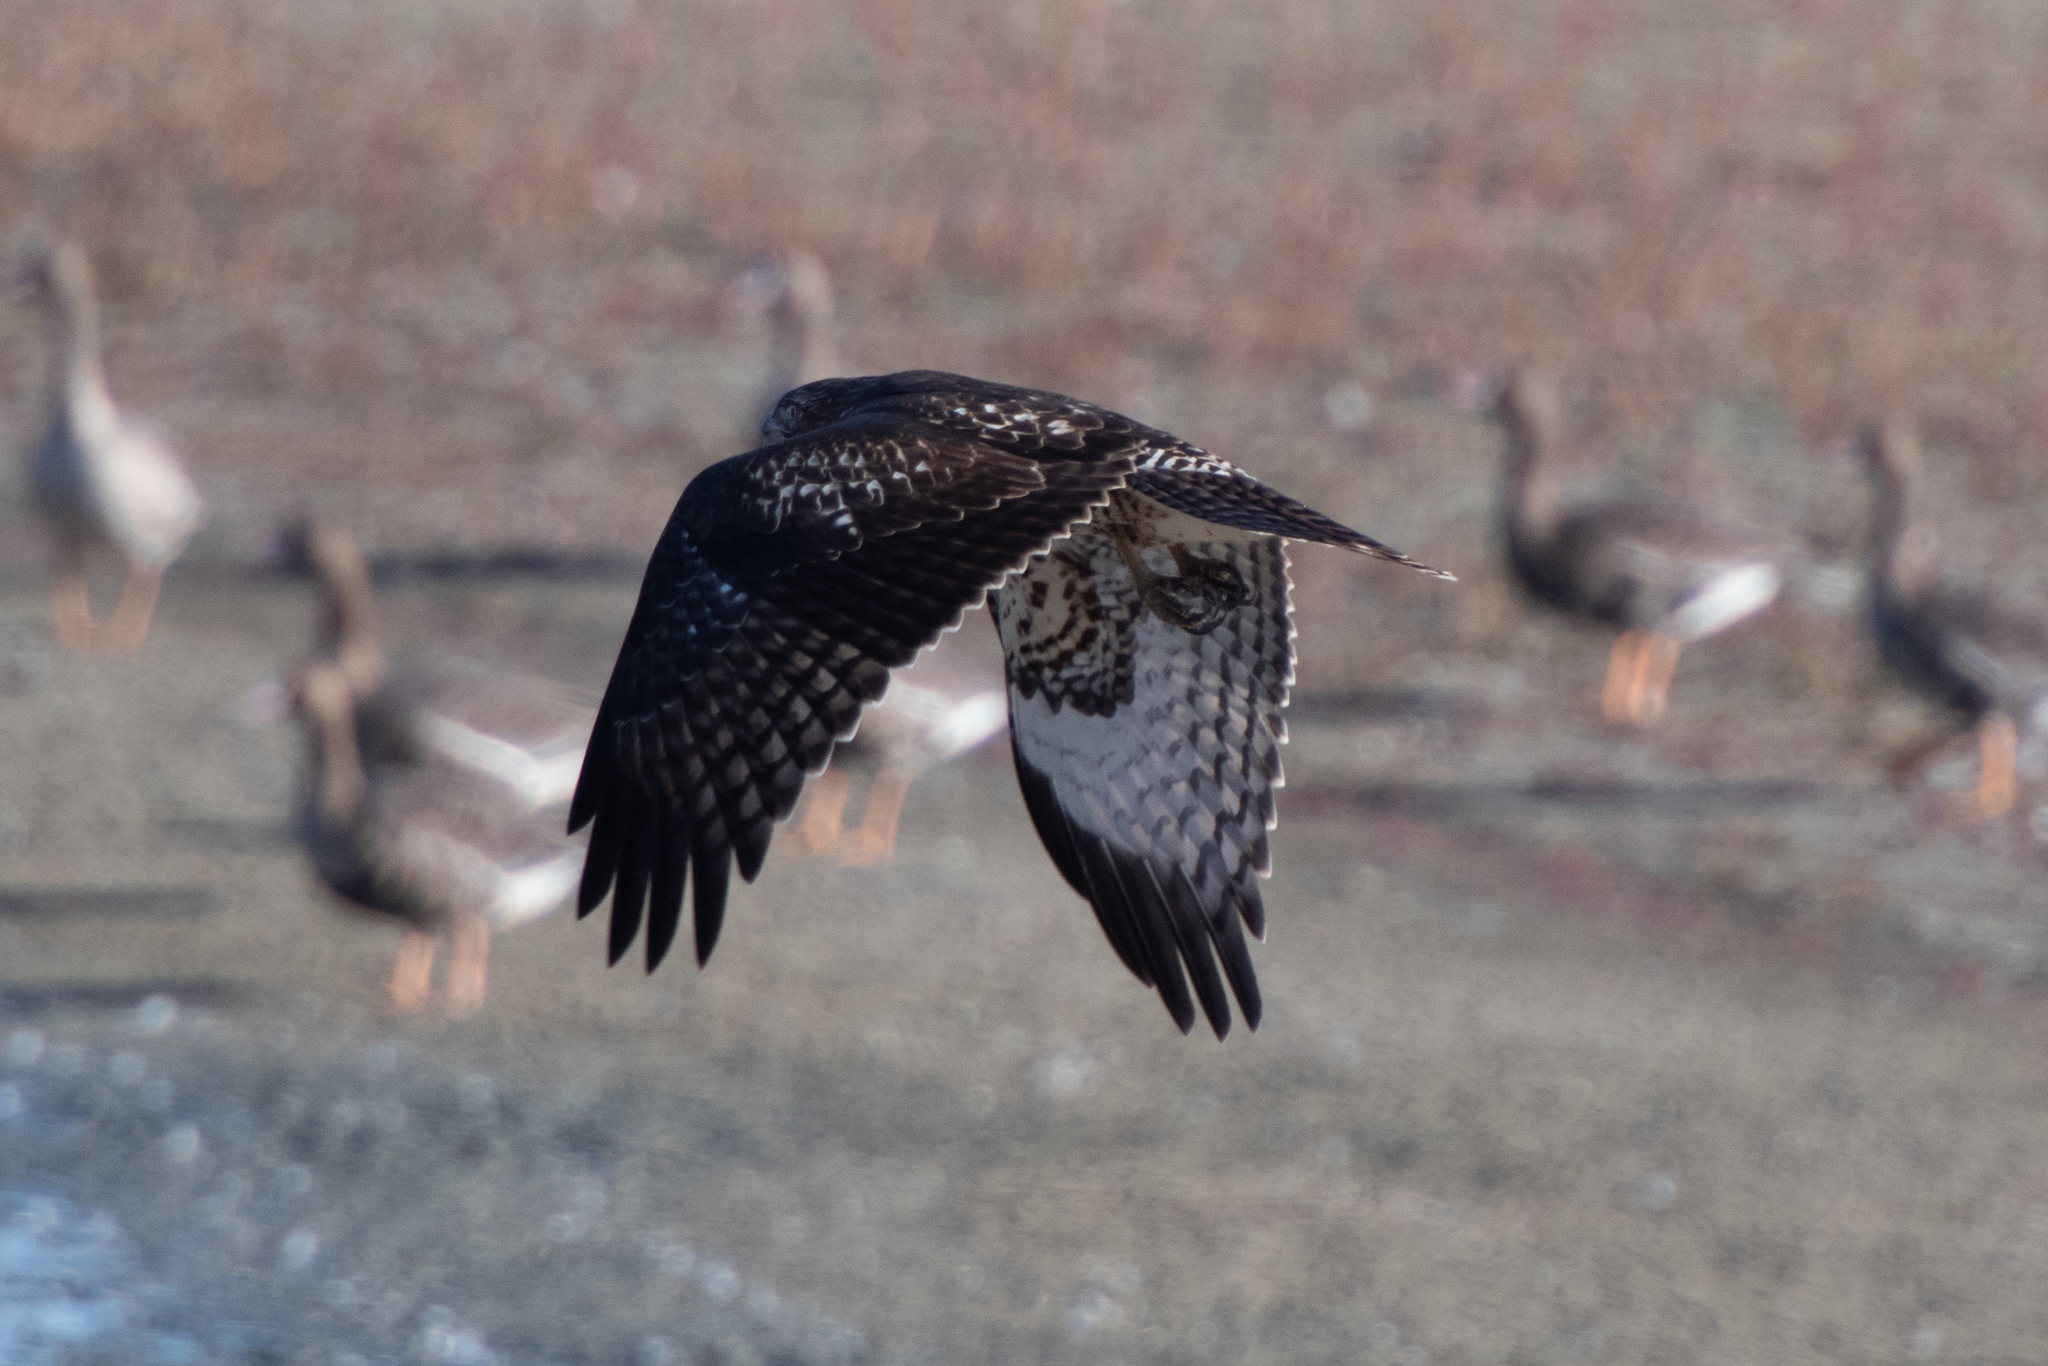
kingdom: Animalia
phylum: Chordata
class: Aves
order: Accipitriformes
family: Accipitridae
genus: Buteo
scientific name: Buteo jamaicensis
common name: Red-tailed hawk
